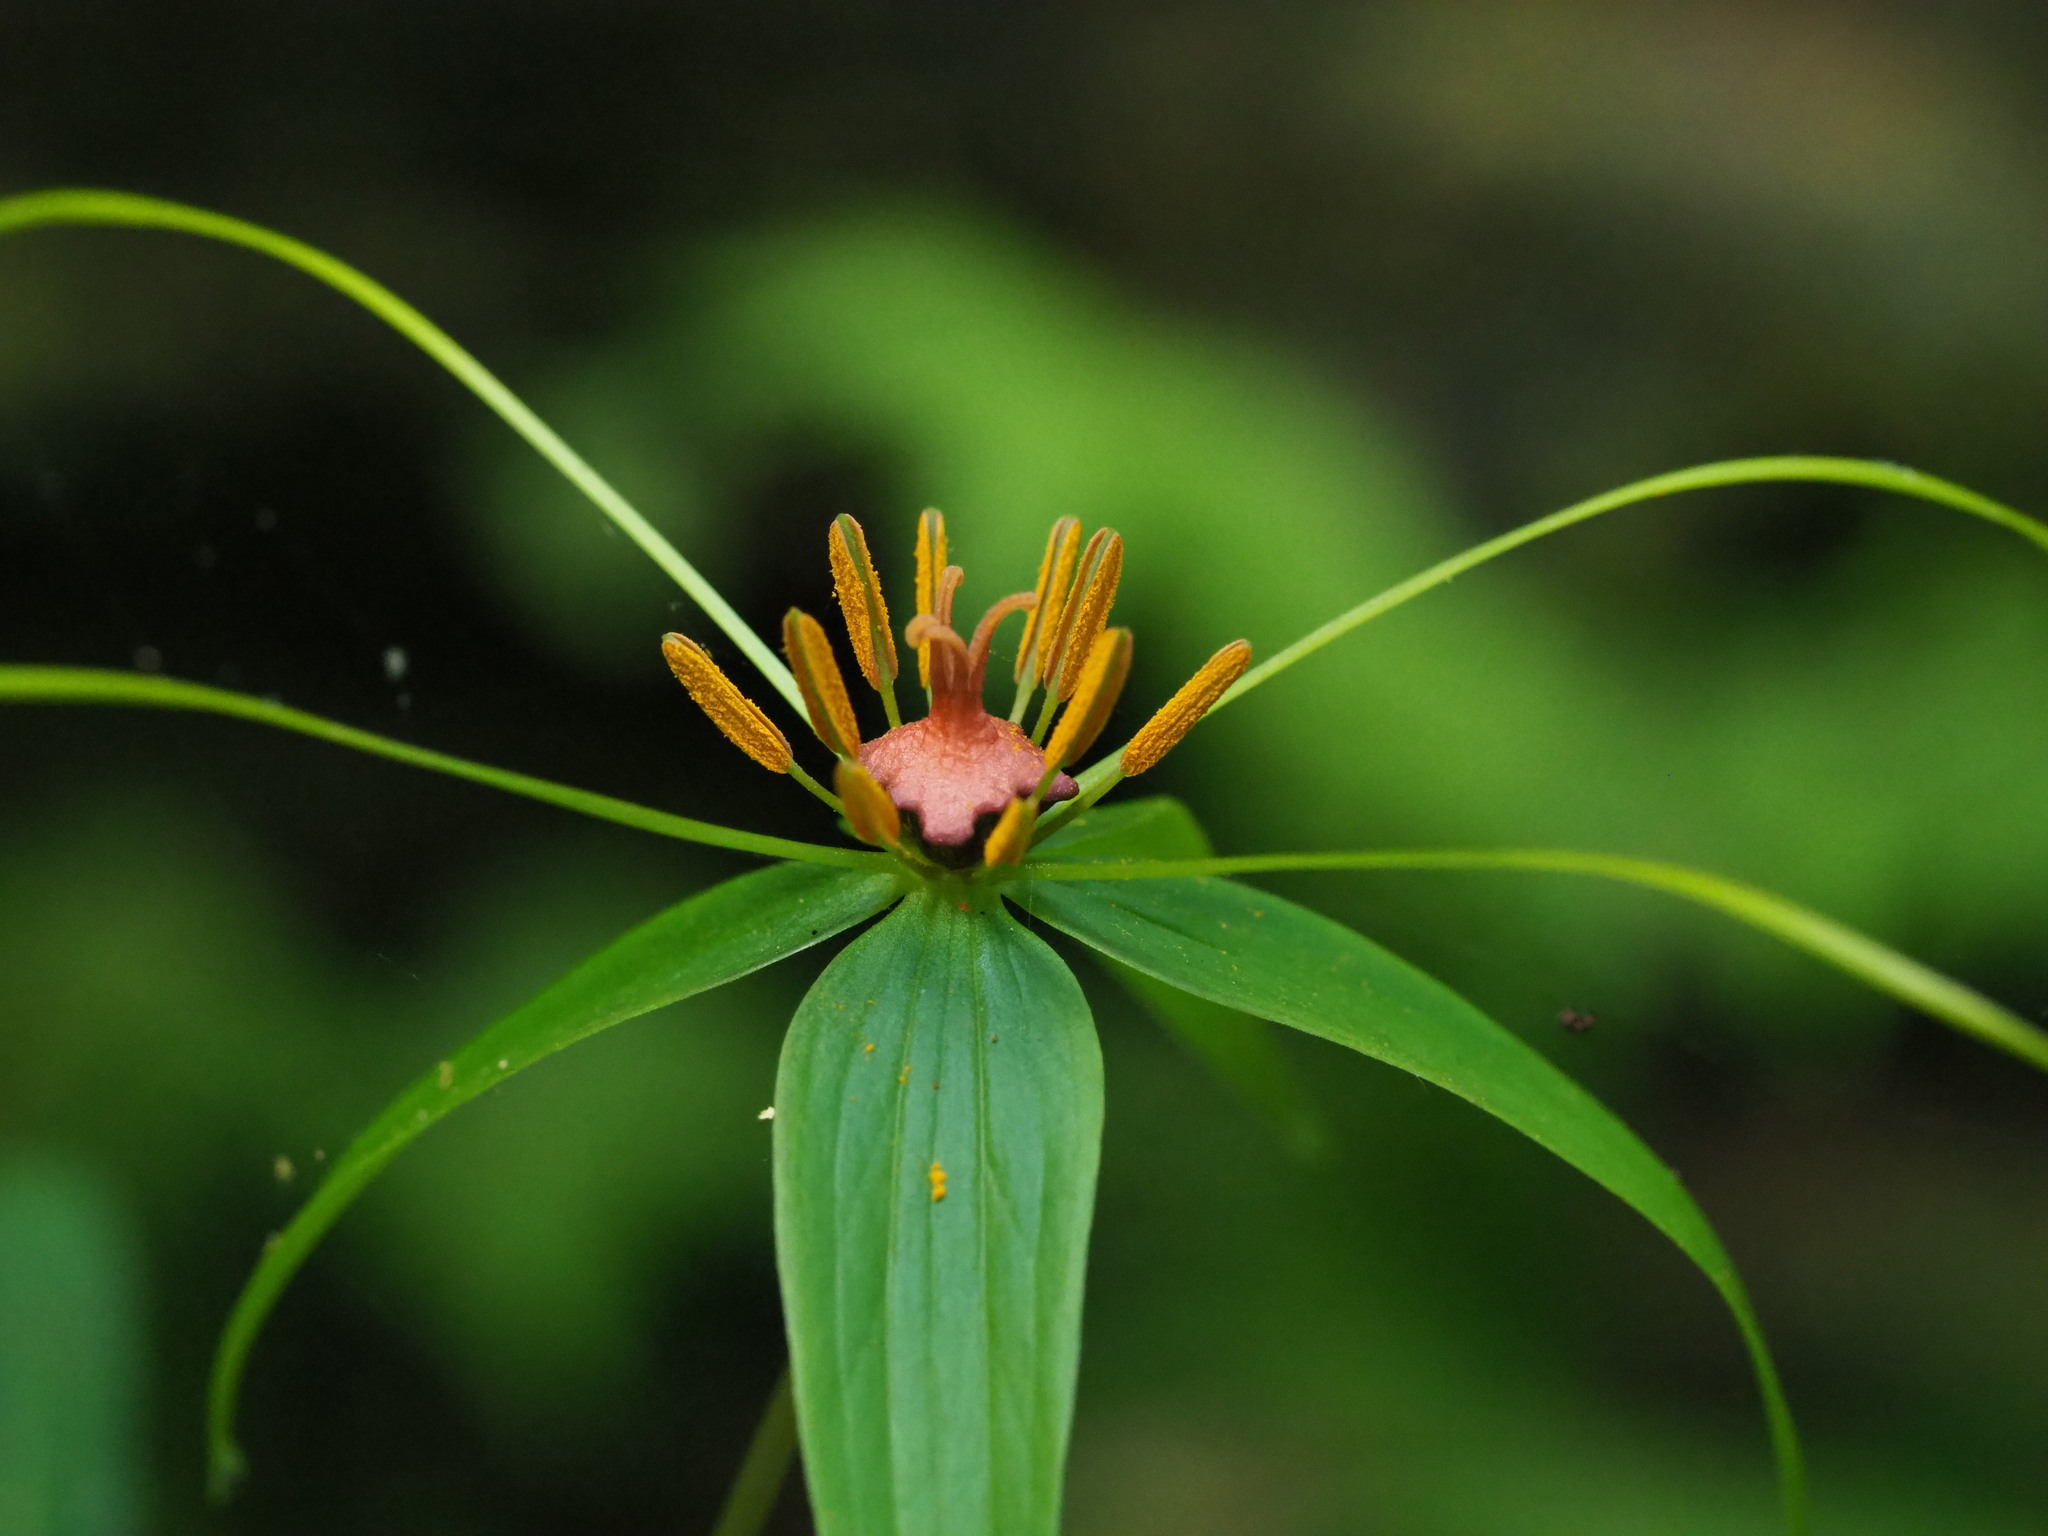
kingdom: Plantae
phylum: Tracheophyta
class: Liliopsida
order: Liliales
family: Melanthiaceae
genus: Paris
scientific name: Paris lancifolia
